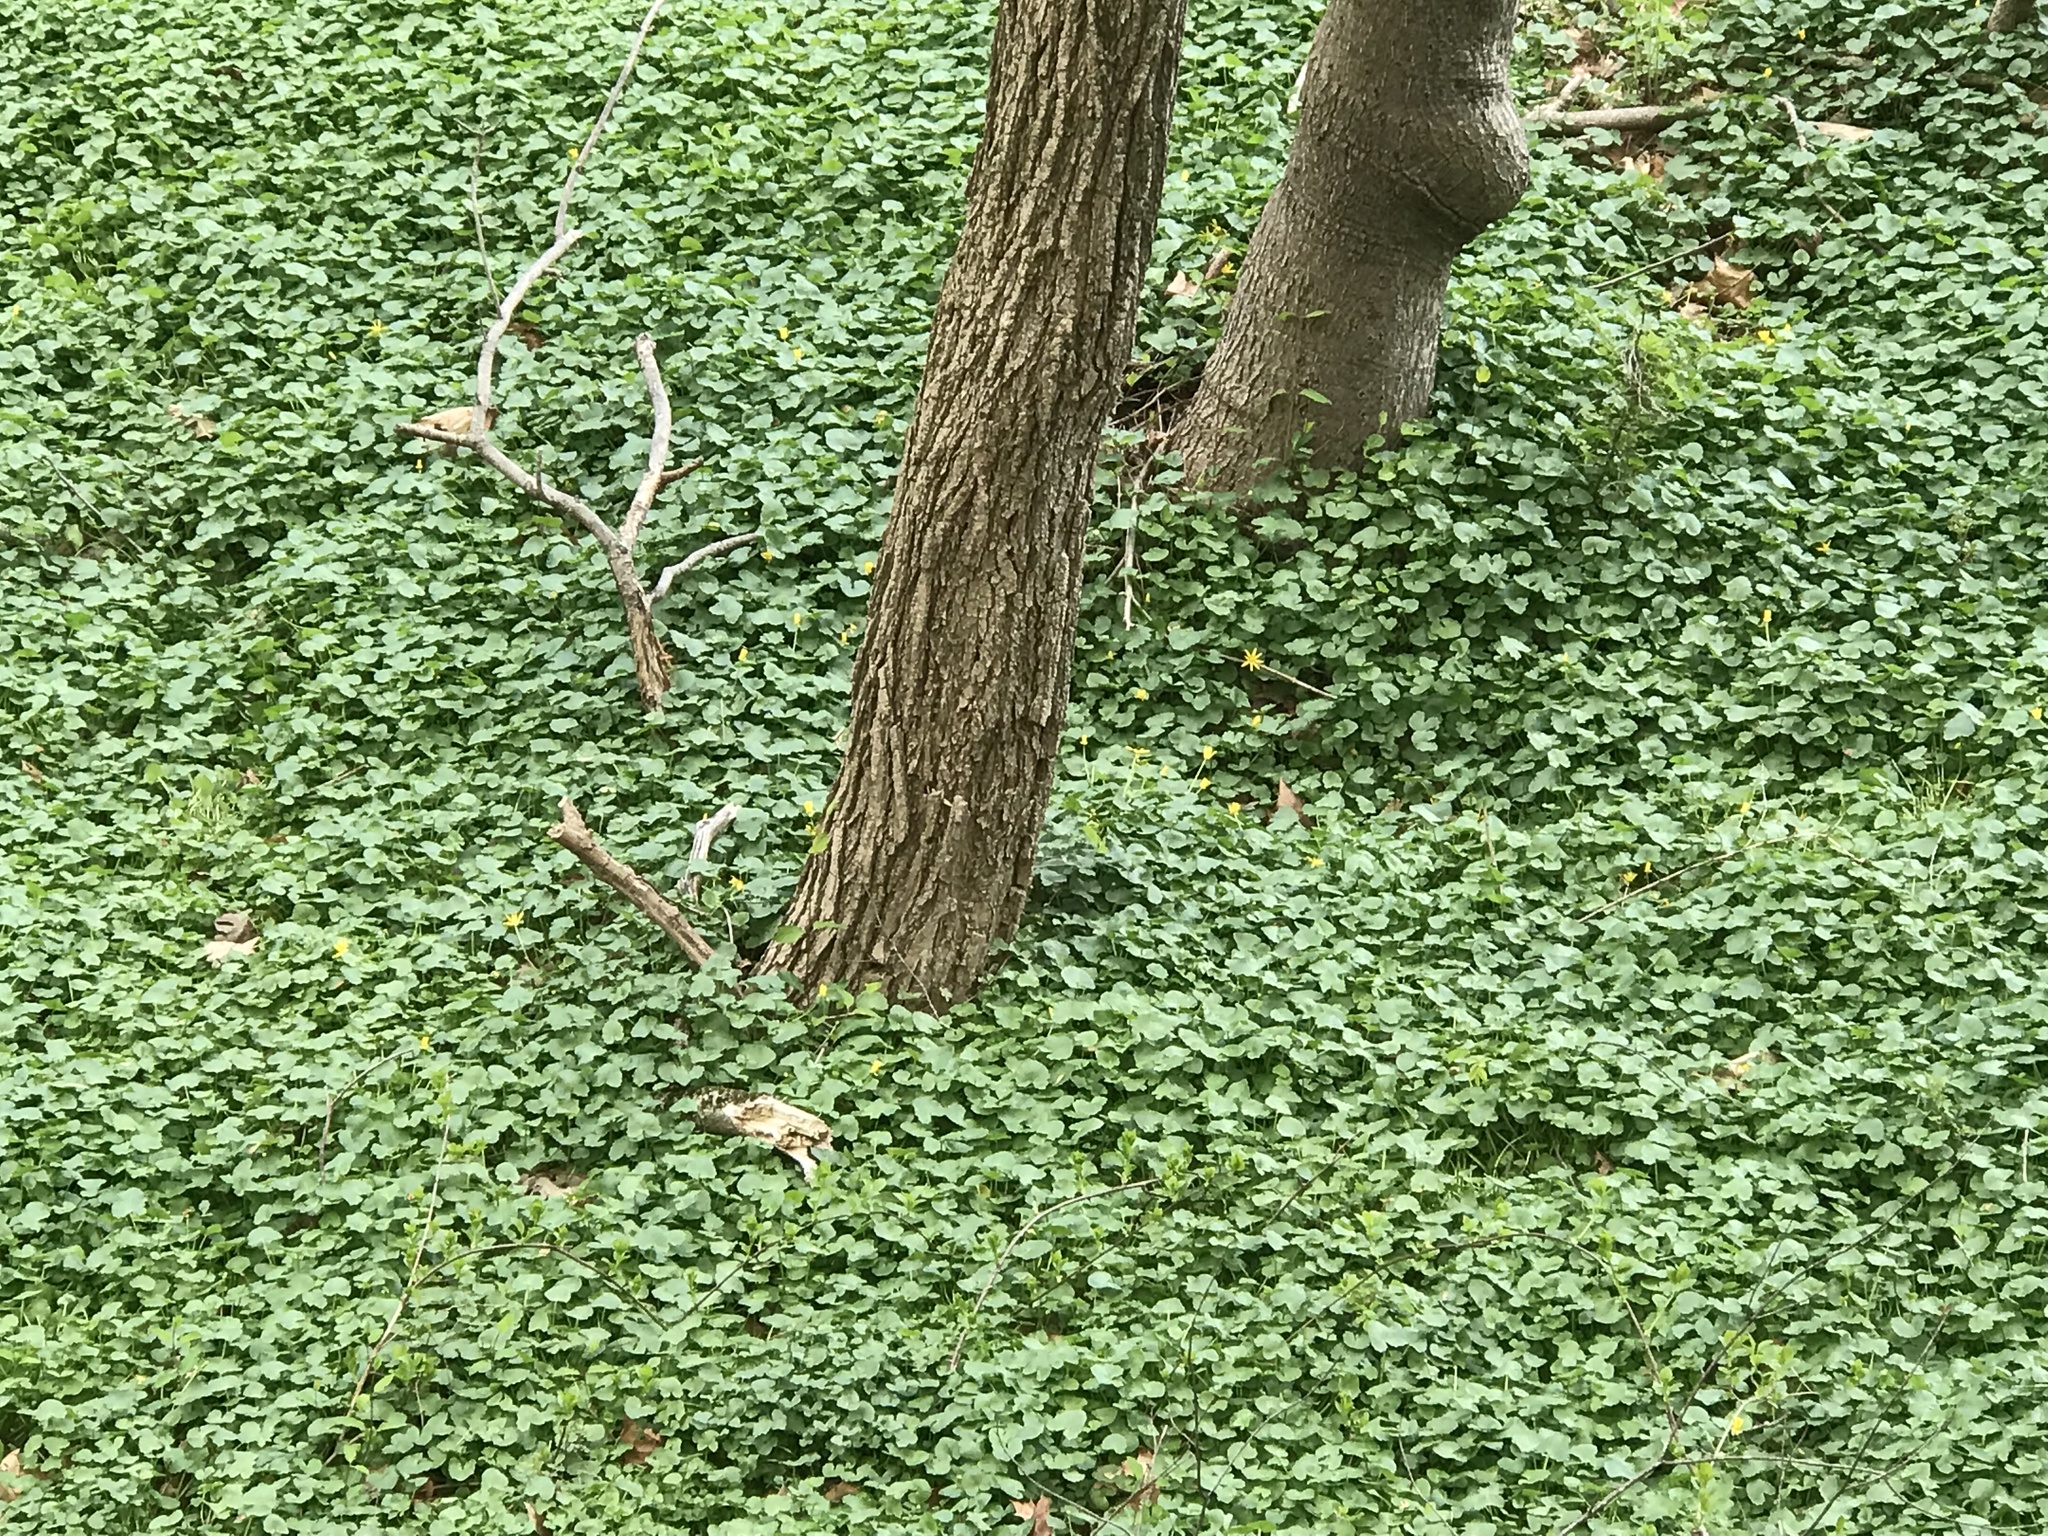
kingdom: Plantae
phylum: Tracheophyta
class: Magnoliopsida
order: Ranunculales
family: Ranunculaceae
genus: Ficaria
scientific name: Ficaria verna
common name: Lesser celandine
